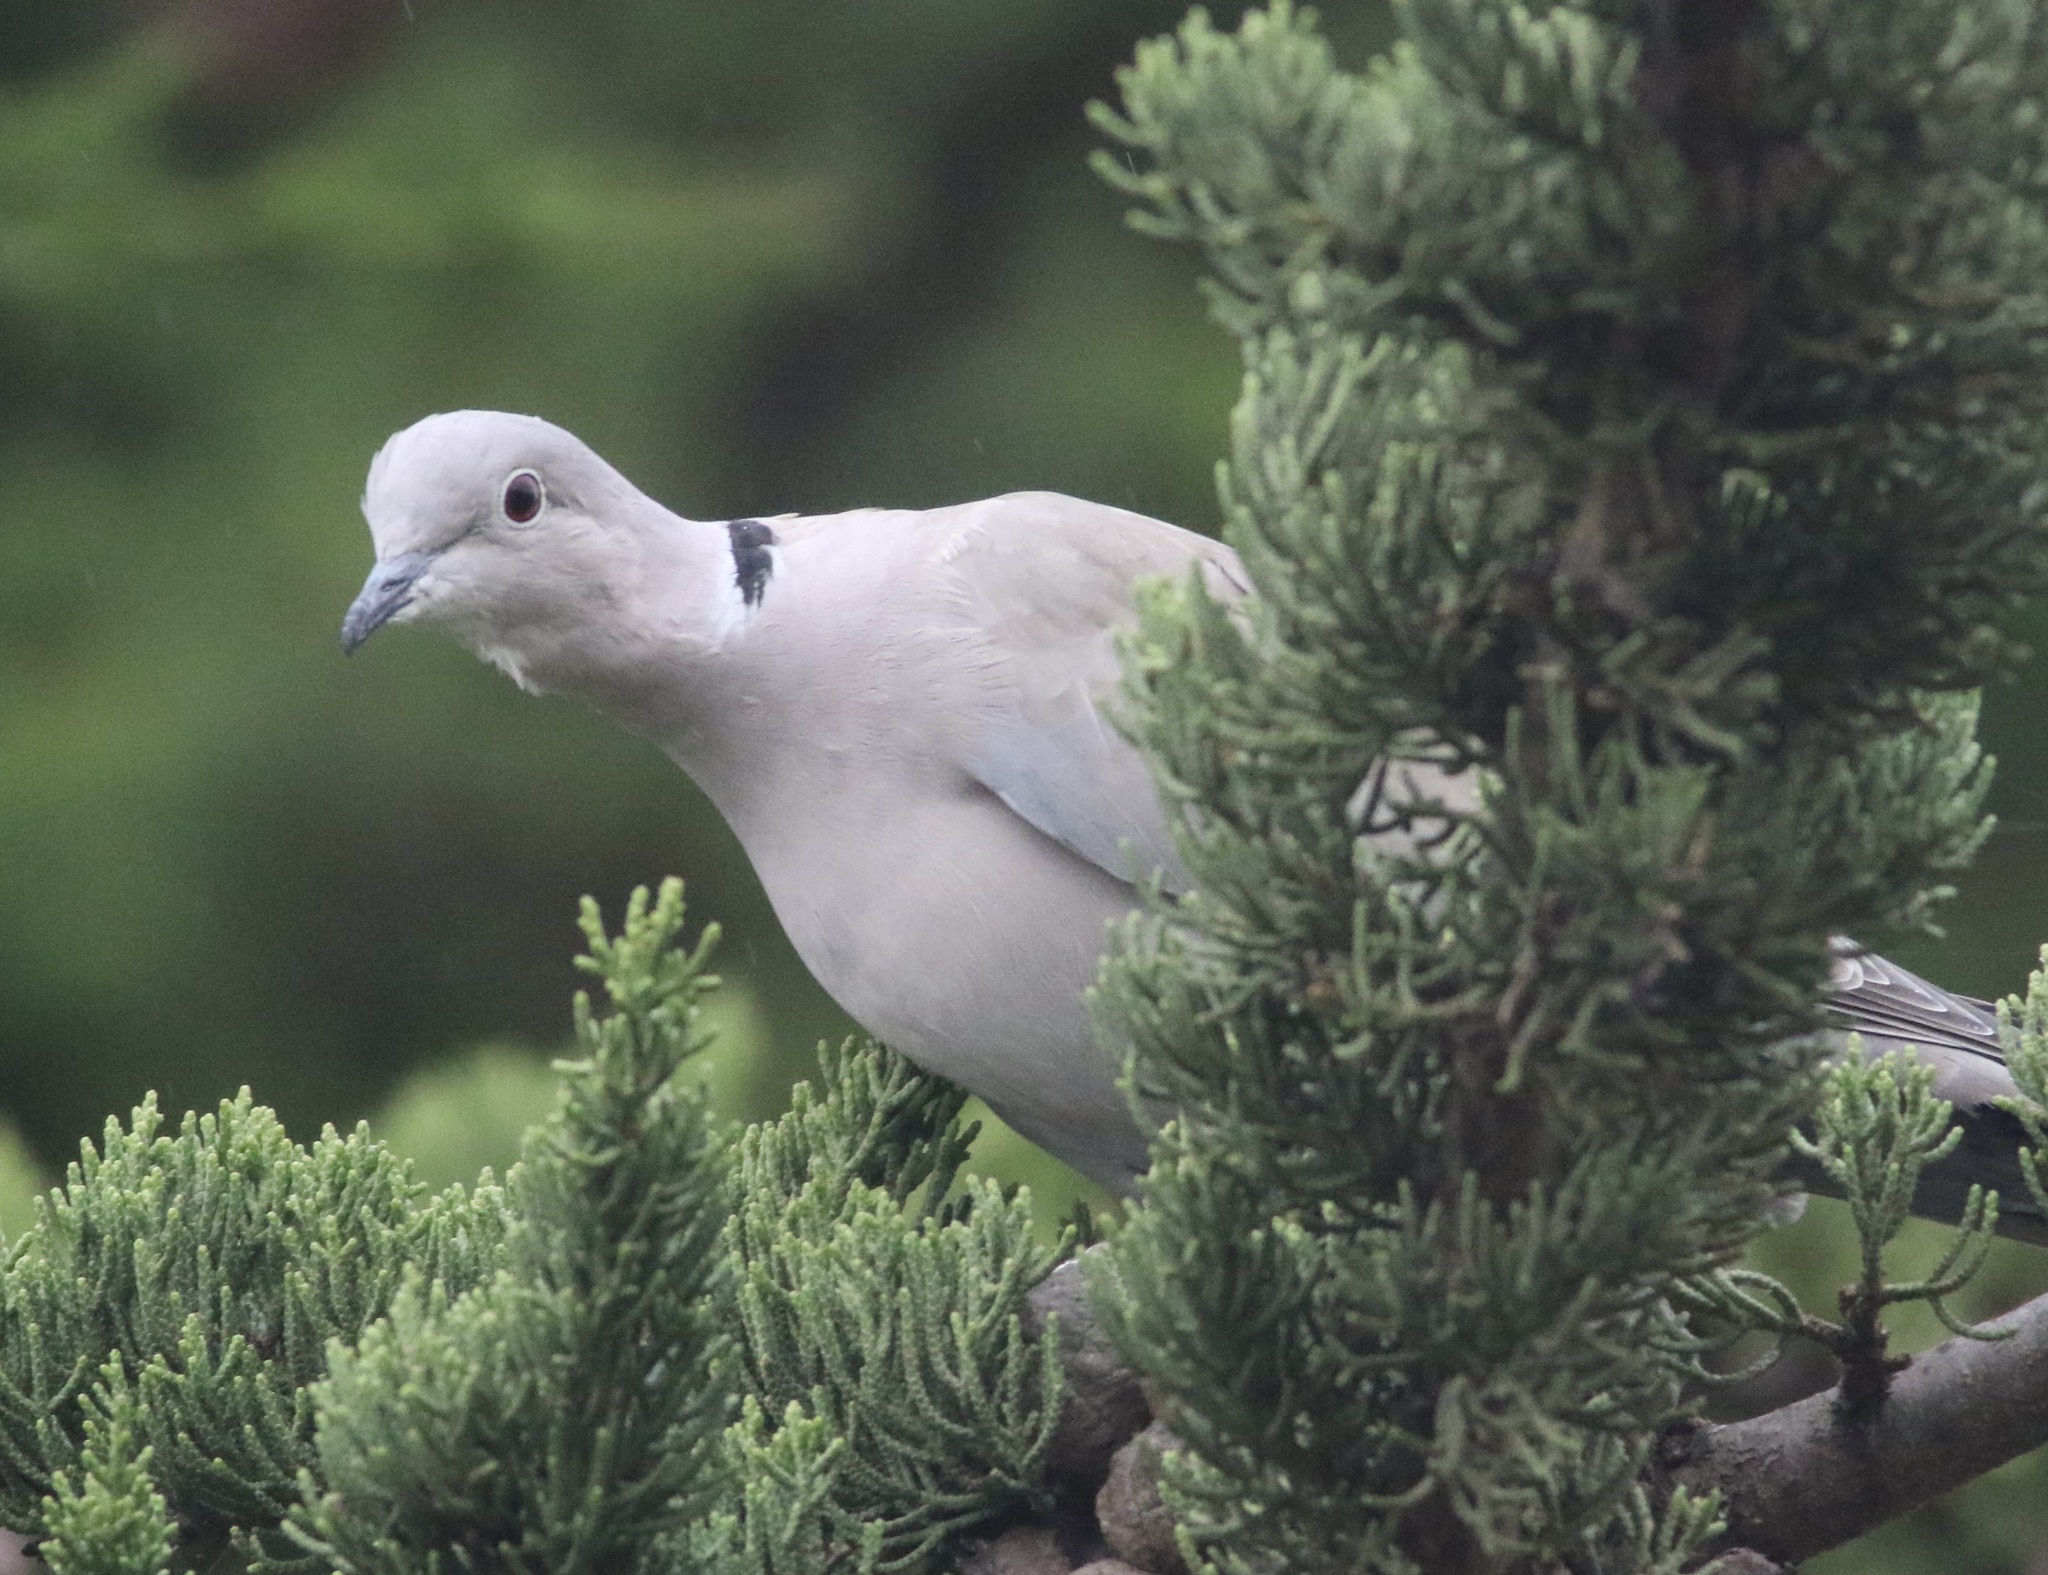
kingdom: Animalia
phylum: Chordata
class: Aves
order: Columbiformes
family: Columbidae
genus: Streptopelia
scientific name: Streptopelia decaocto
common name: Eurasian collared dove
